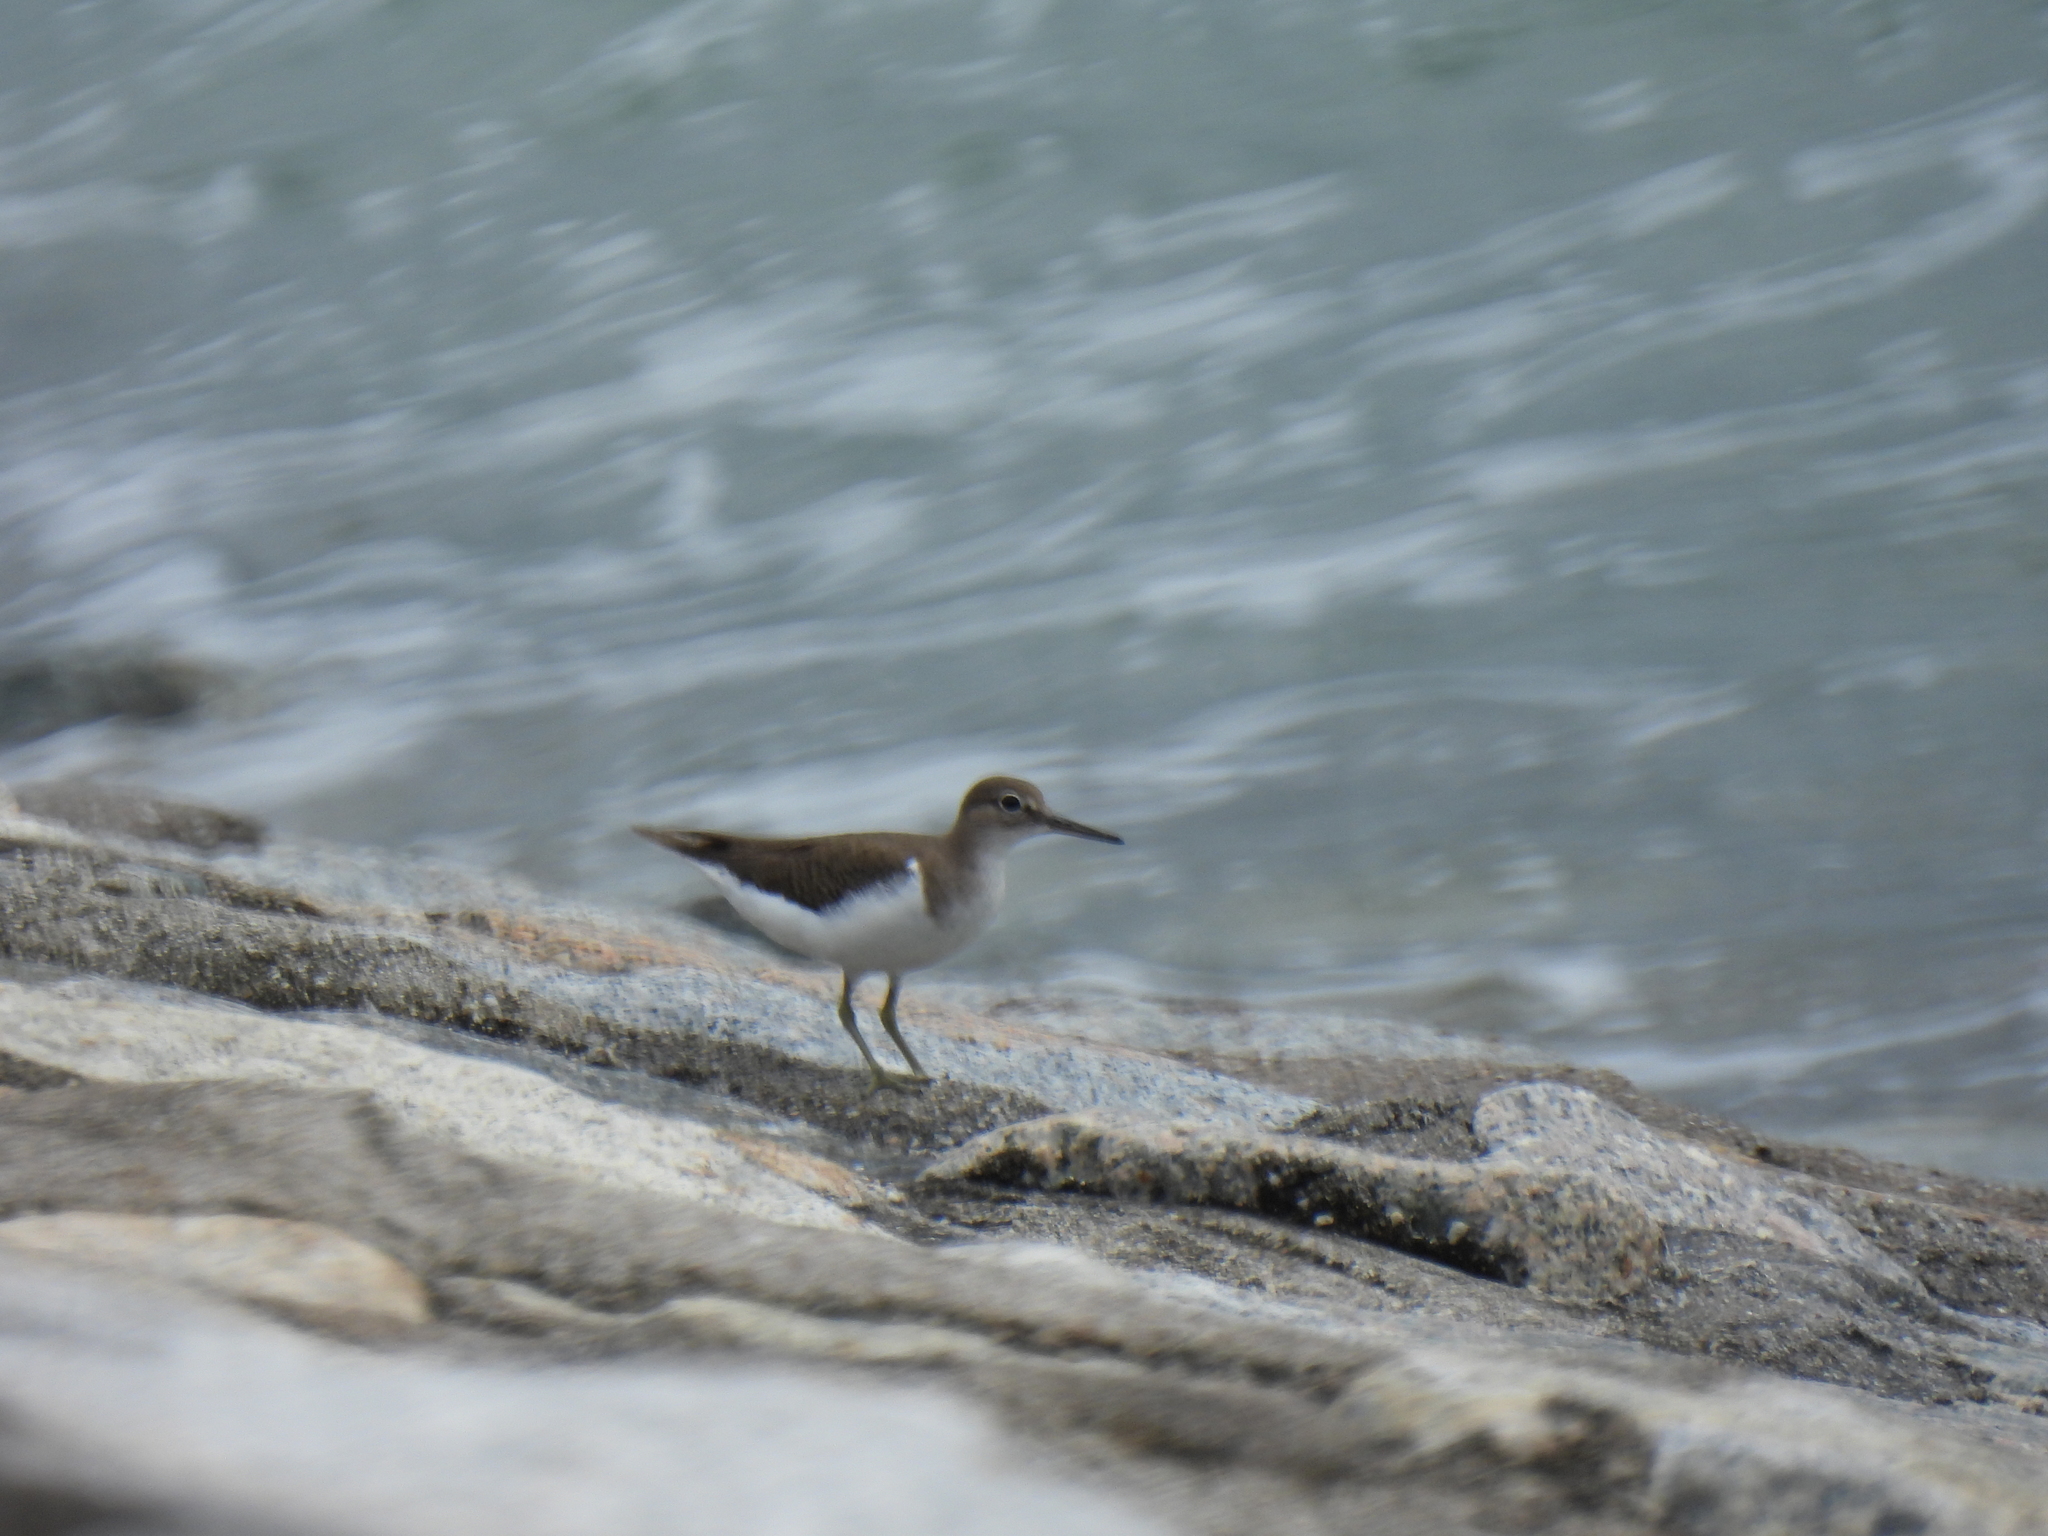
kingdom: Animalia
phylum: Chordata
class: Aves
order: Charadriiformes
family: Scolopacidae
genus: Actitis
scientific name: Actitis hypoleucos
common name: Common sandpiper
